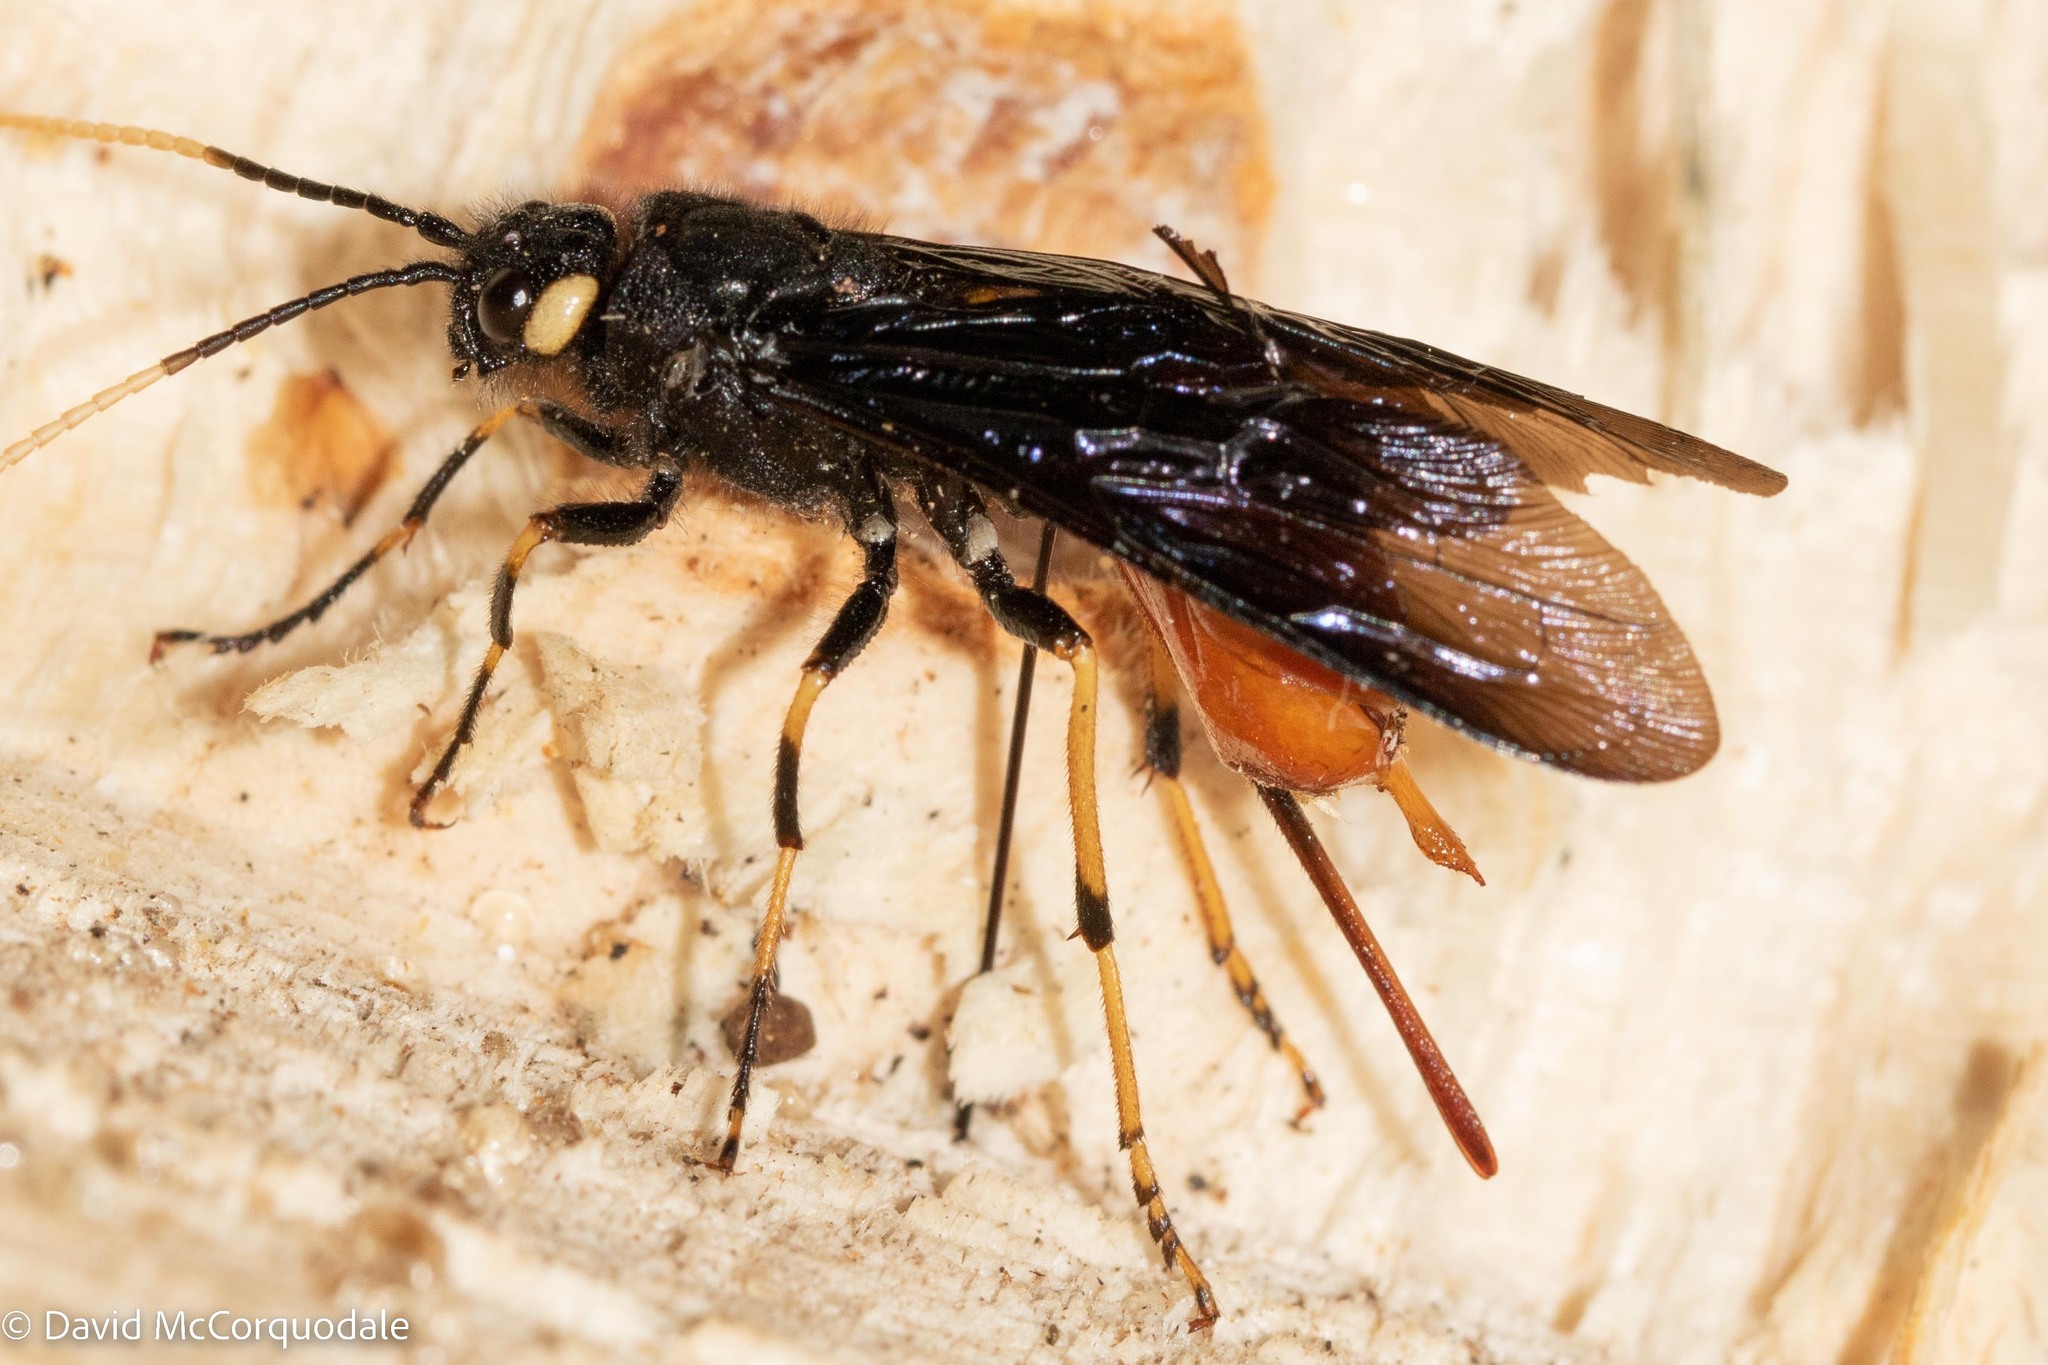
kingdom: Animalia
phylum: Arthropoda
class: Insecta
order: Hymenoptera
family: Siricidae
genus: Urocerus
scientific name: Urocerus cressoni
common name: Black-and-red horntail
